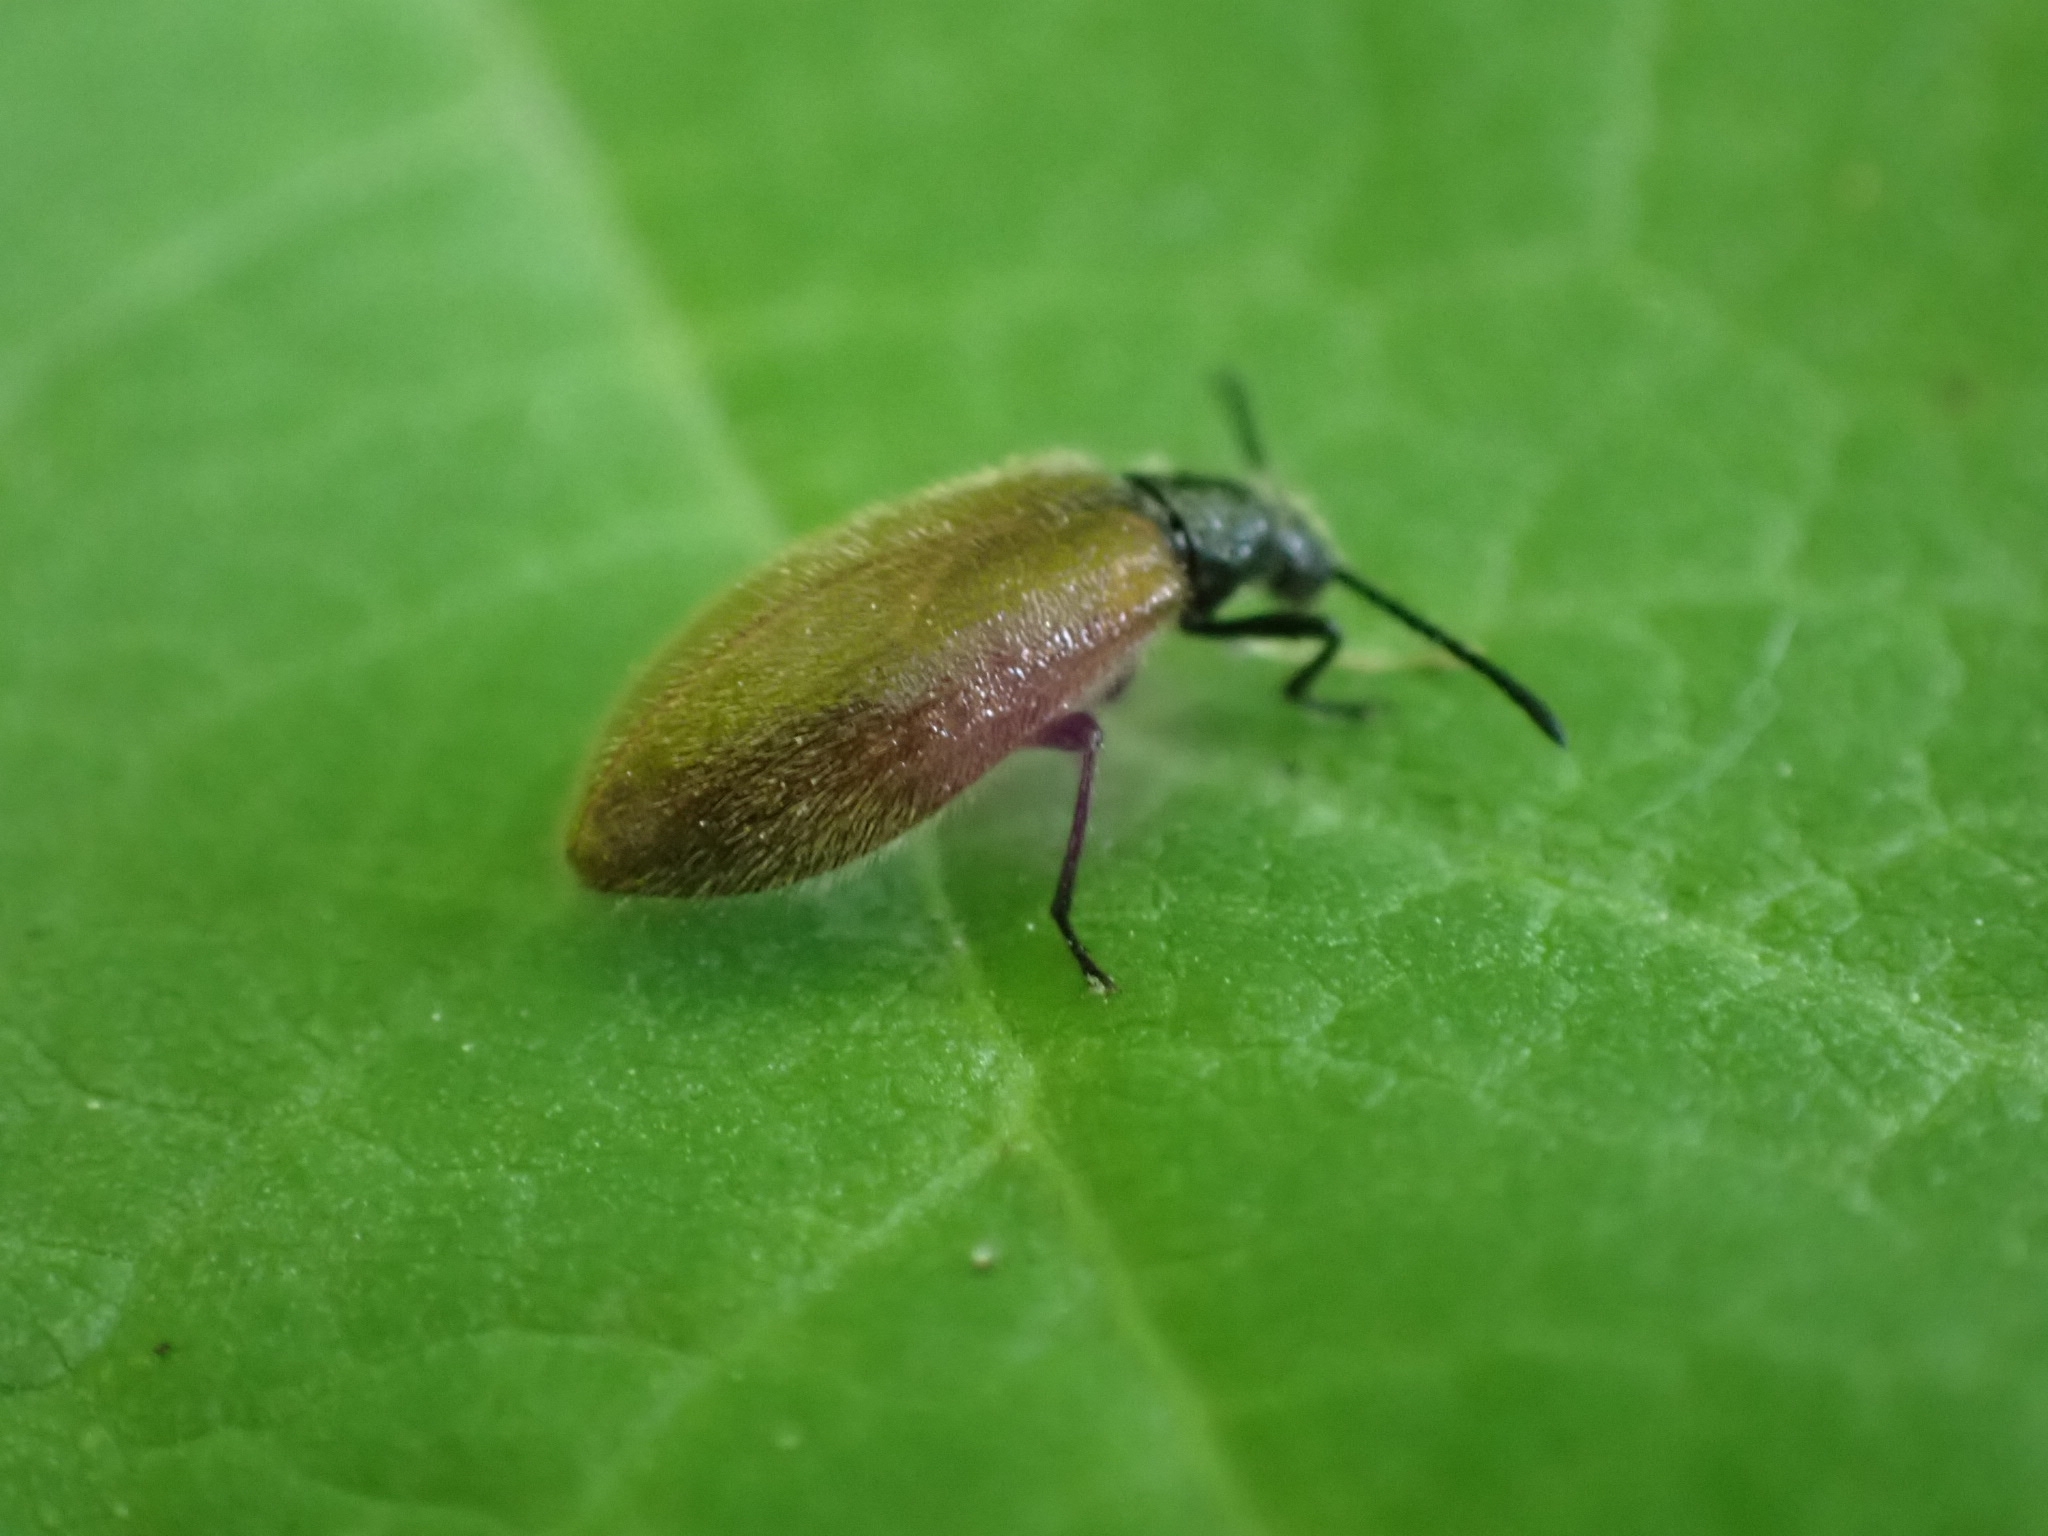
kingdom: Animalia
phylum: Arthropoda
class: Insecta
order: Coleoptera
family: Tenebrionidae
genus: Lagria
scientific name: Lagria hirta
